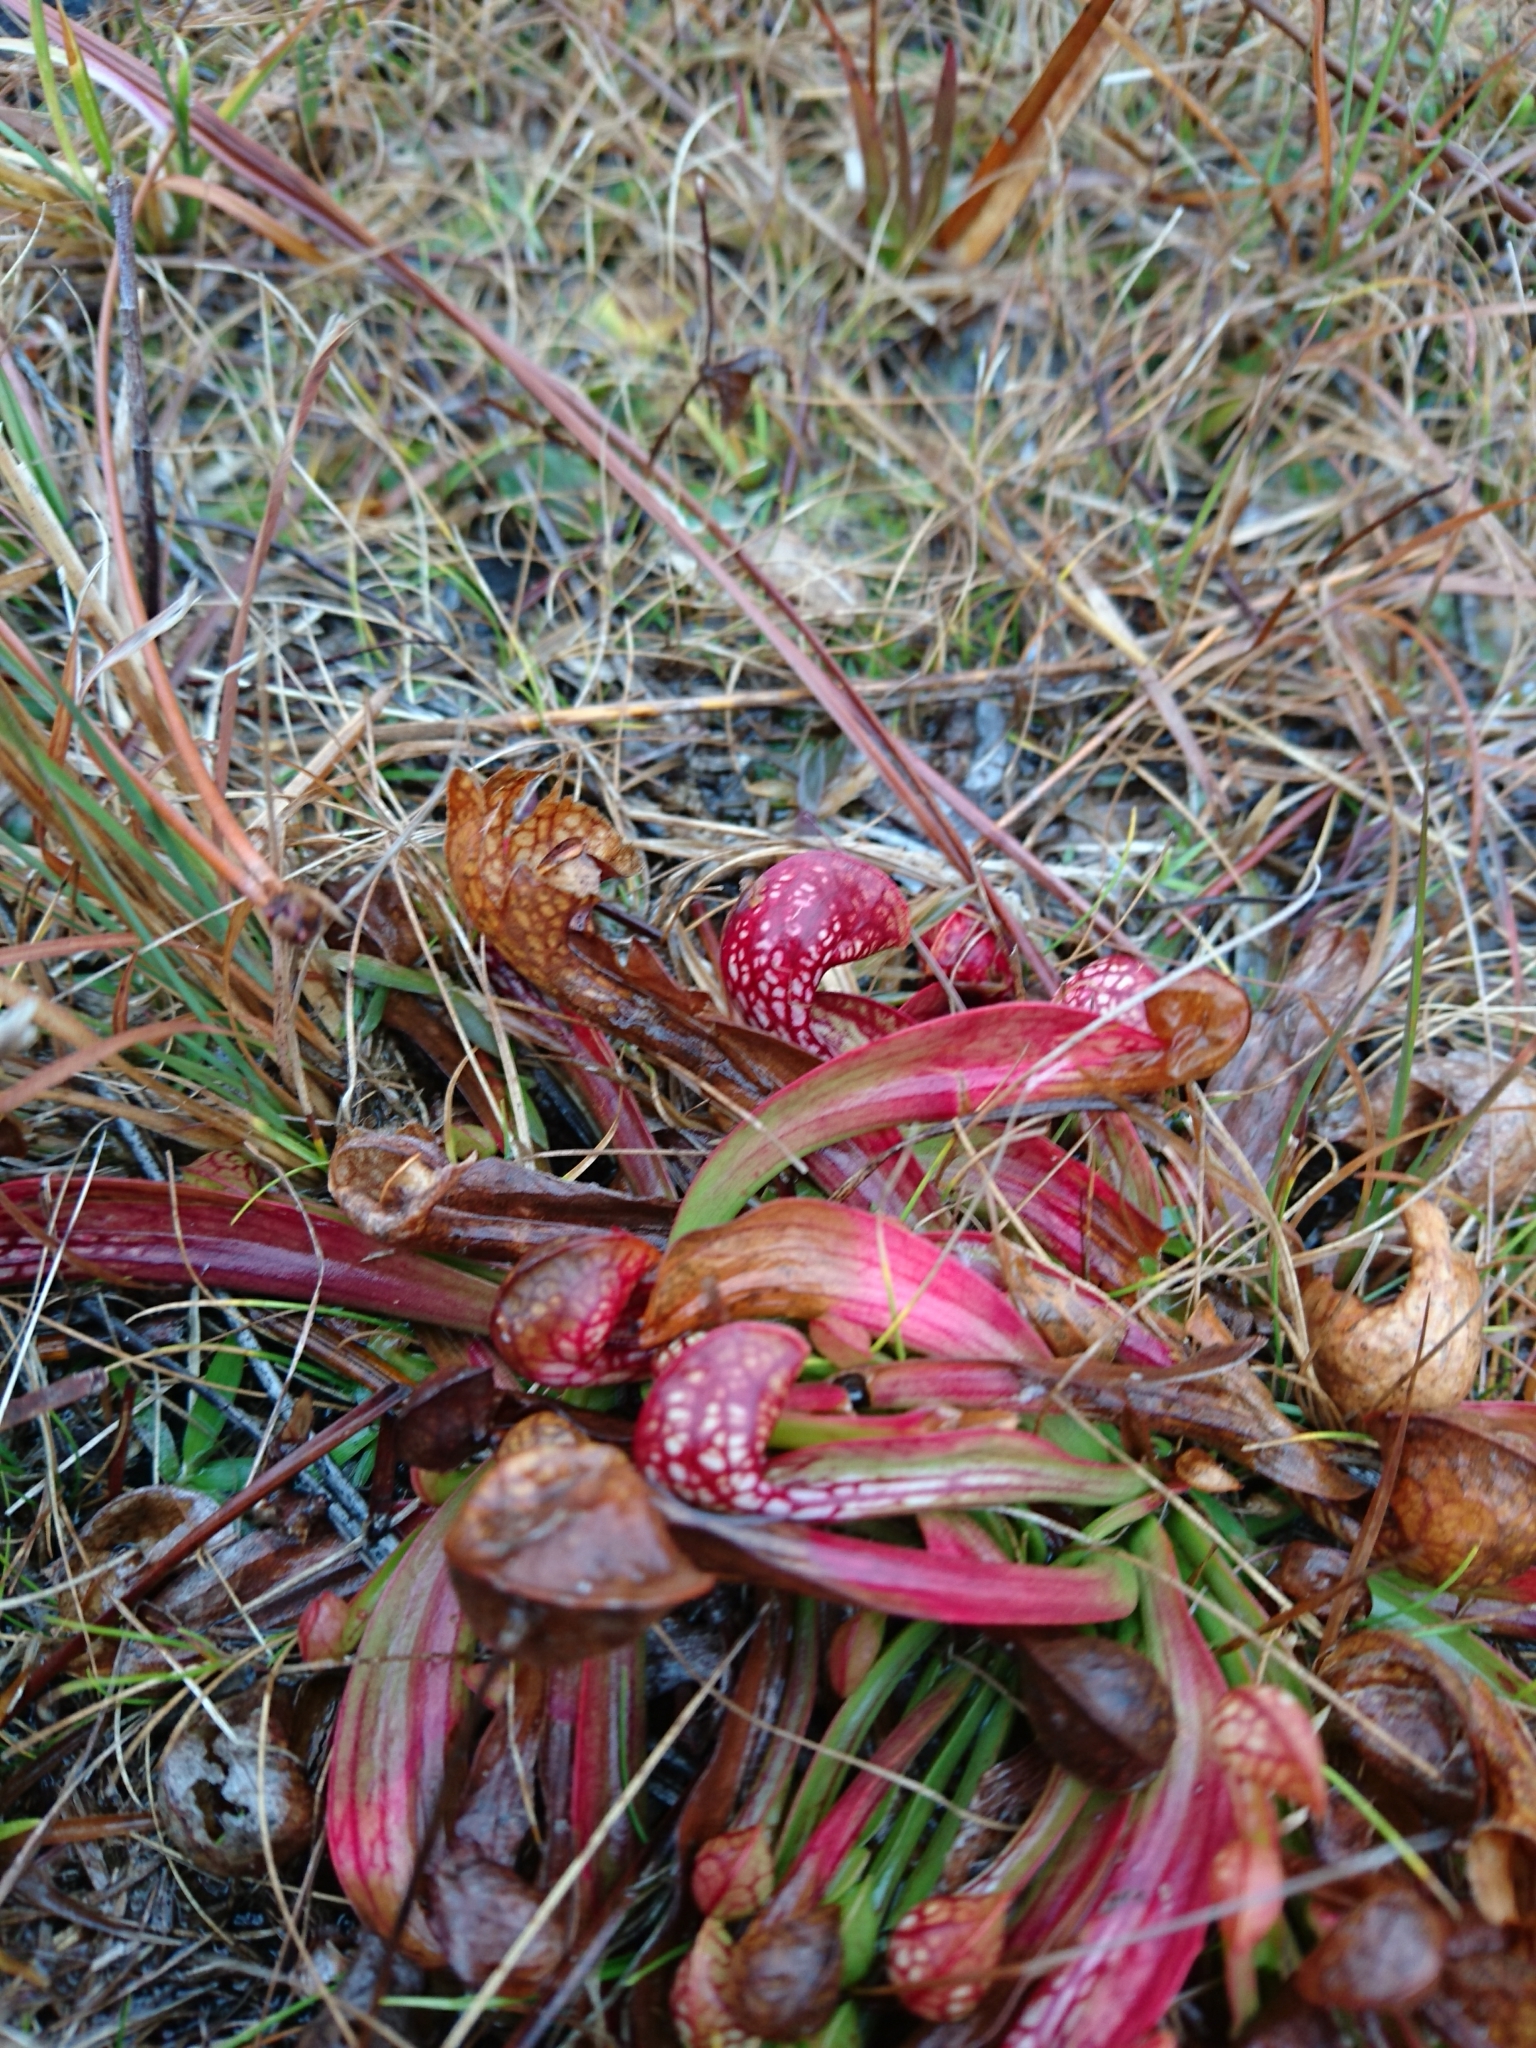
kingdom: Plantae
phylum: Tracheophyta
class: Magnoliopsida
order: Ericales
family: Sarraceniaceae
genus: Sarracenia
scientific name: Sarracenia psittacina
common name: Parrot pitcherplant
